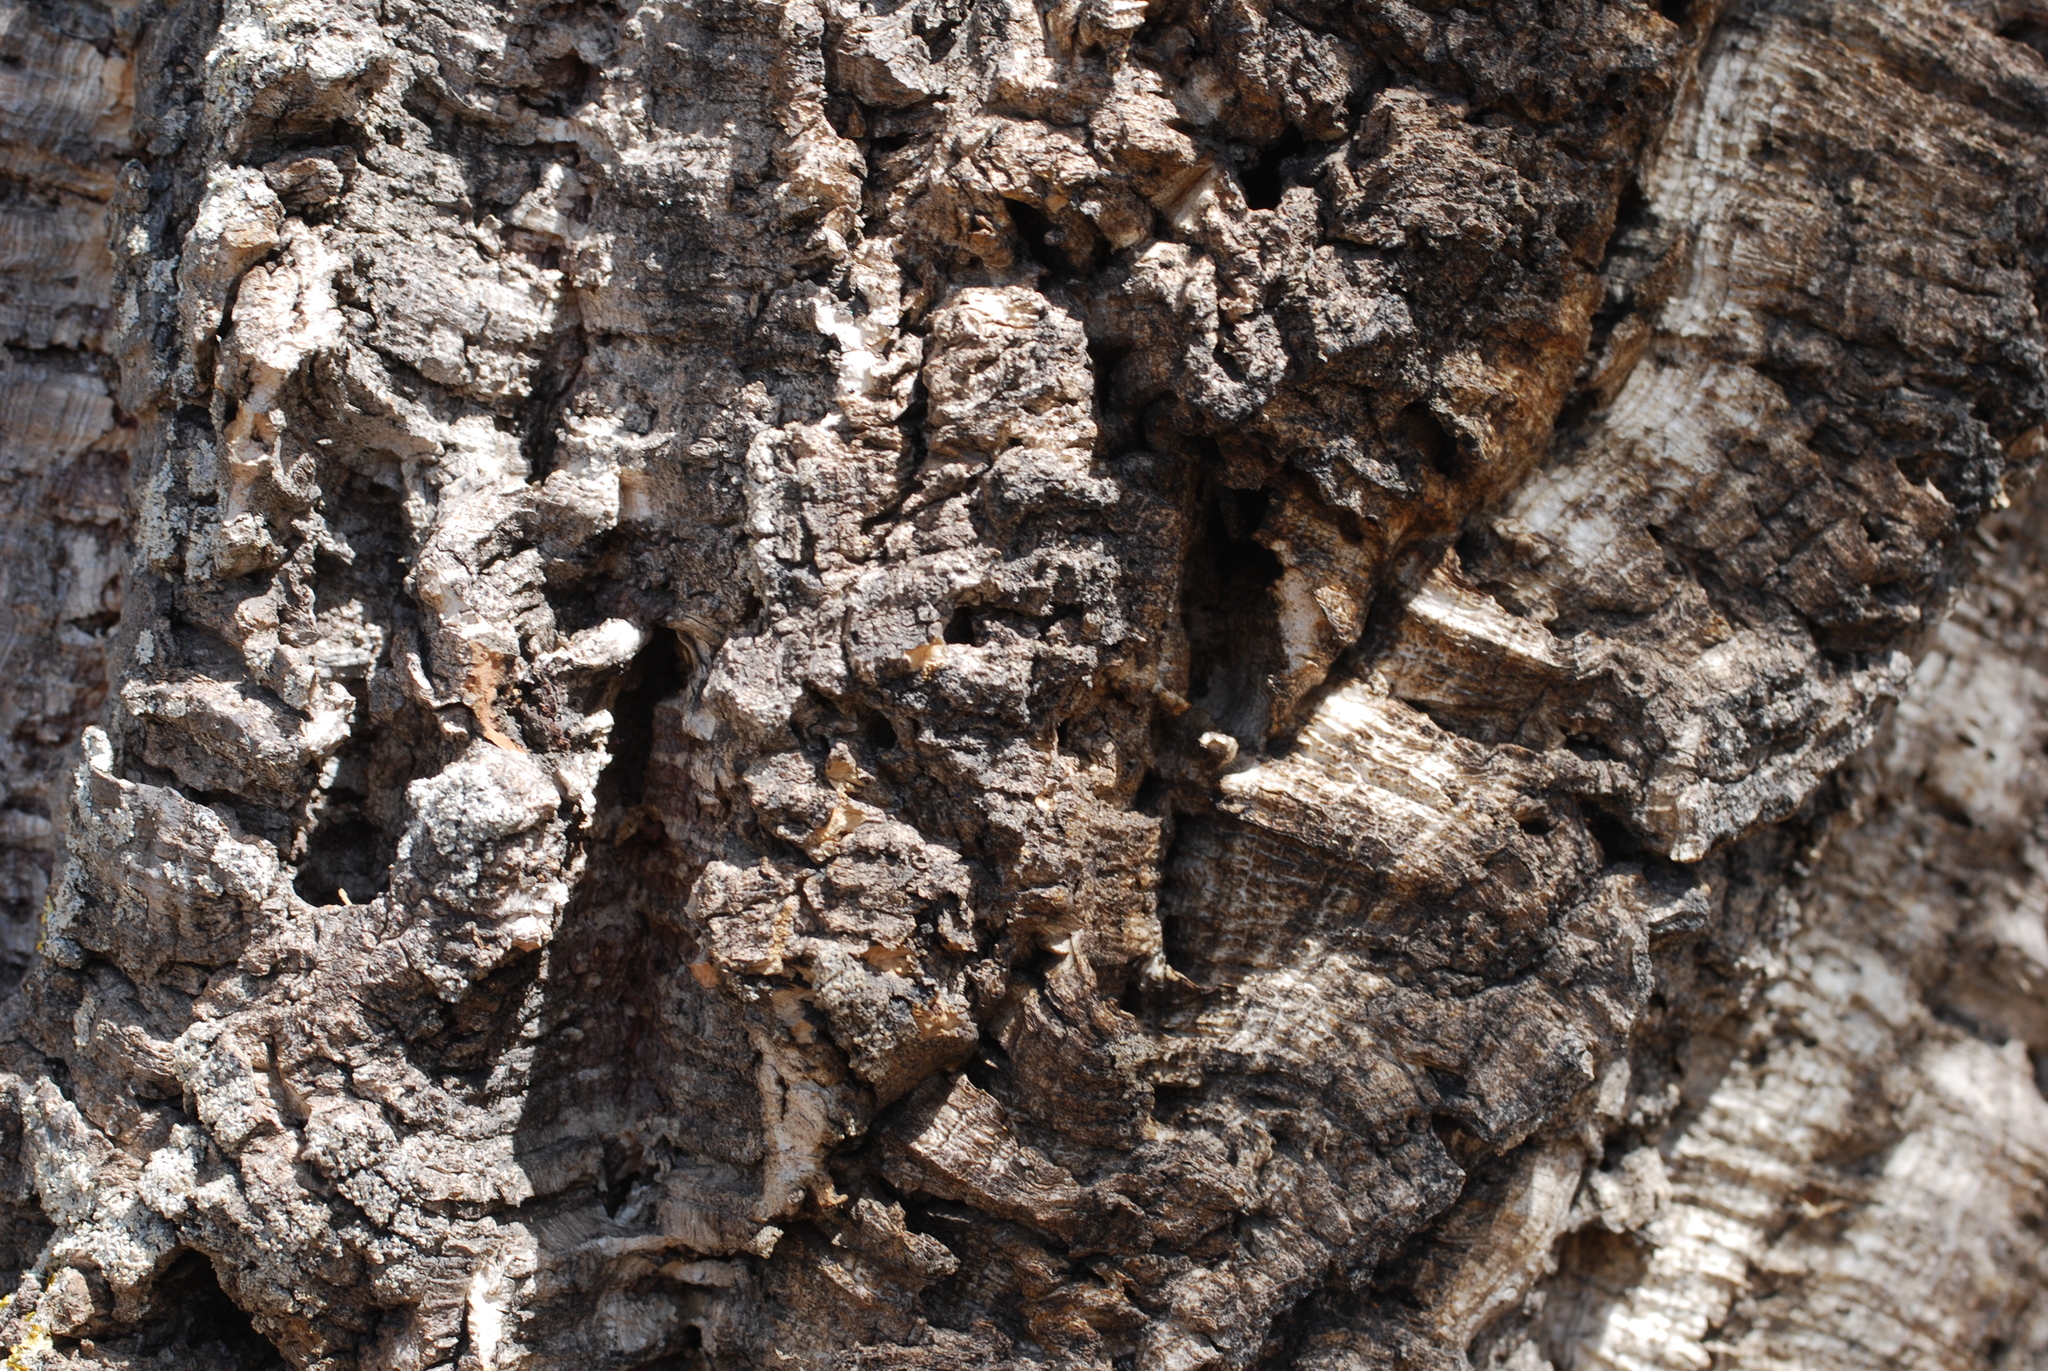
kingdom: Plantae
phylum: Tracheophyta
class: Magnoliopsida
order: Fagales
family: Fagaceae
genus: Quercus
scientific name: Quercus suber
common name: Cork oak
